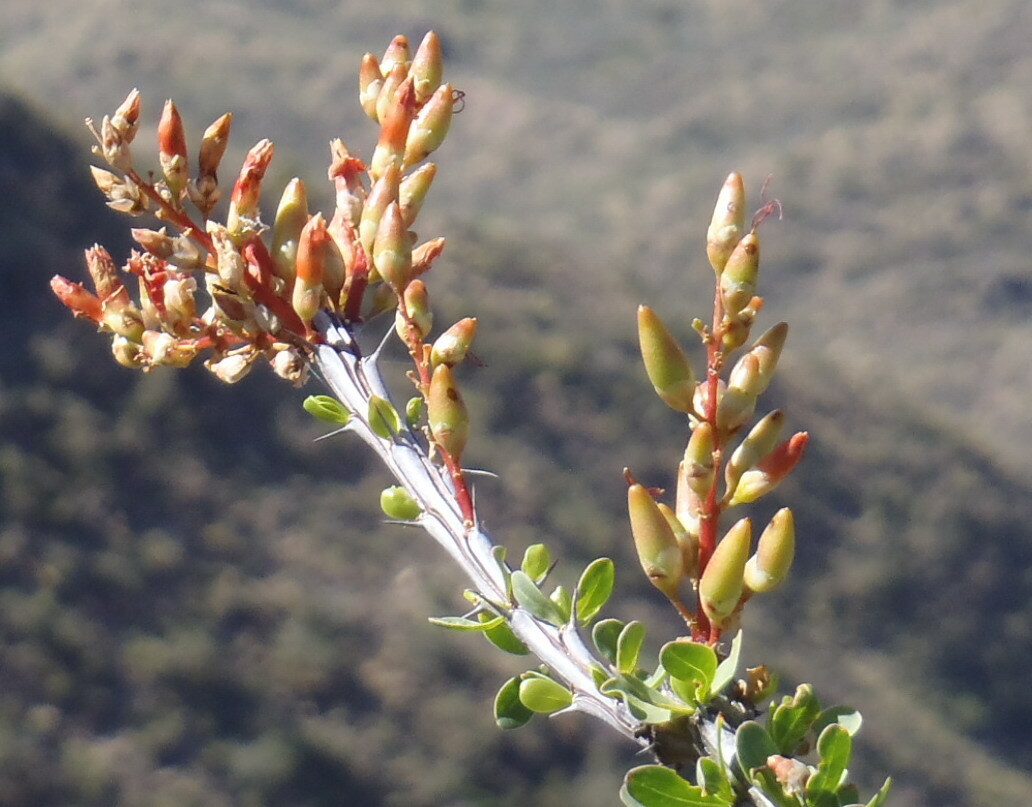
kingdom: Plantae
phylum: Tracheophyta
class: Magnoliopsida
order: Ericales
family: Fouquieriaceae
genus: Fouquieria
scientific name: Fouquieria splendens
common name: Vine-cactus
